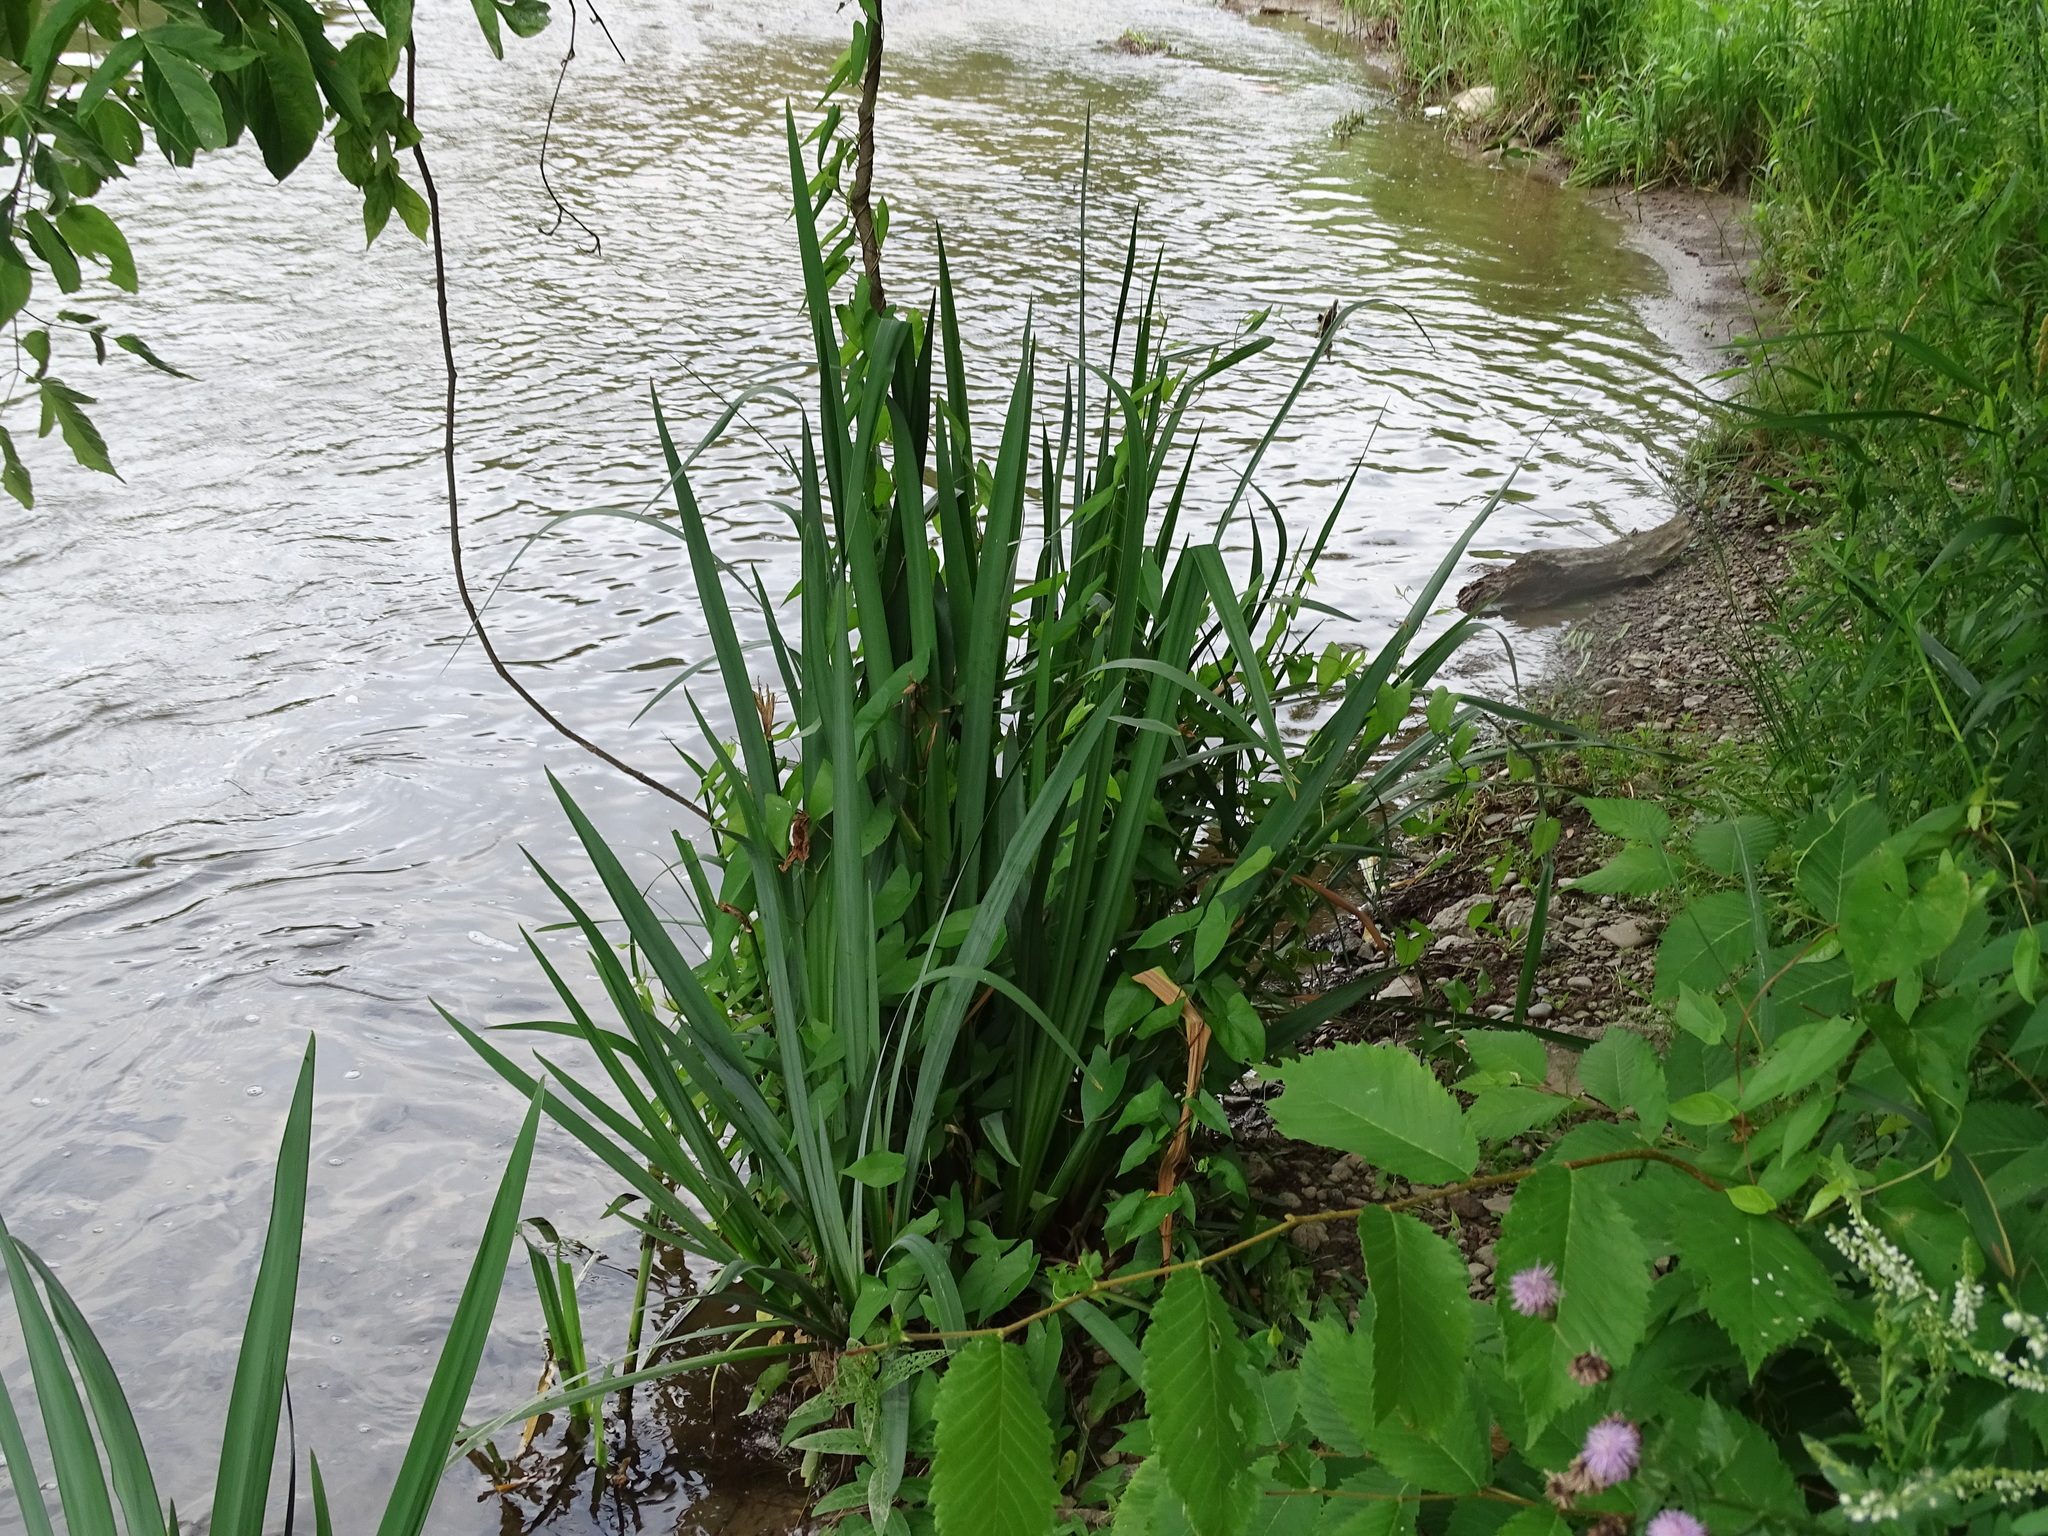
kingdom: Plantae
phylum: Tracheophyta
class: Liliopsida
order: Asparagales
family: Iridaceae
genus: Iris
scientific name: Iris pseudacorus
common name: Yellow flag
